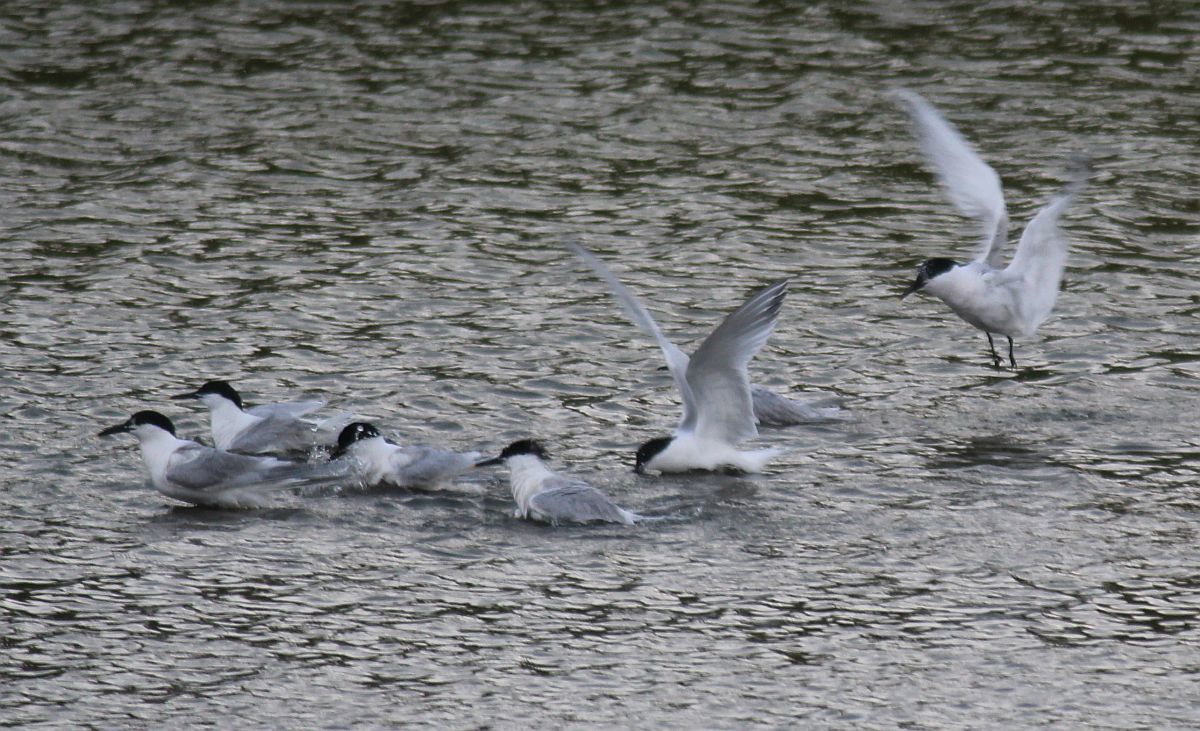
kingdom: Animalia
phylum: Chordata
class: Aves
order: Charadriiformes
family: Laridae
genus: Thalasseus
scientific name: Thalasseus sandvicensis
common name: Sandwich tern
